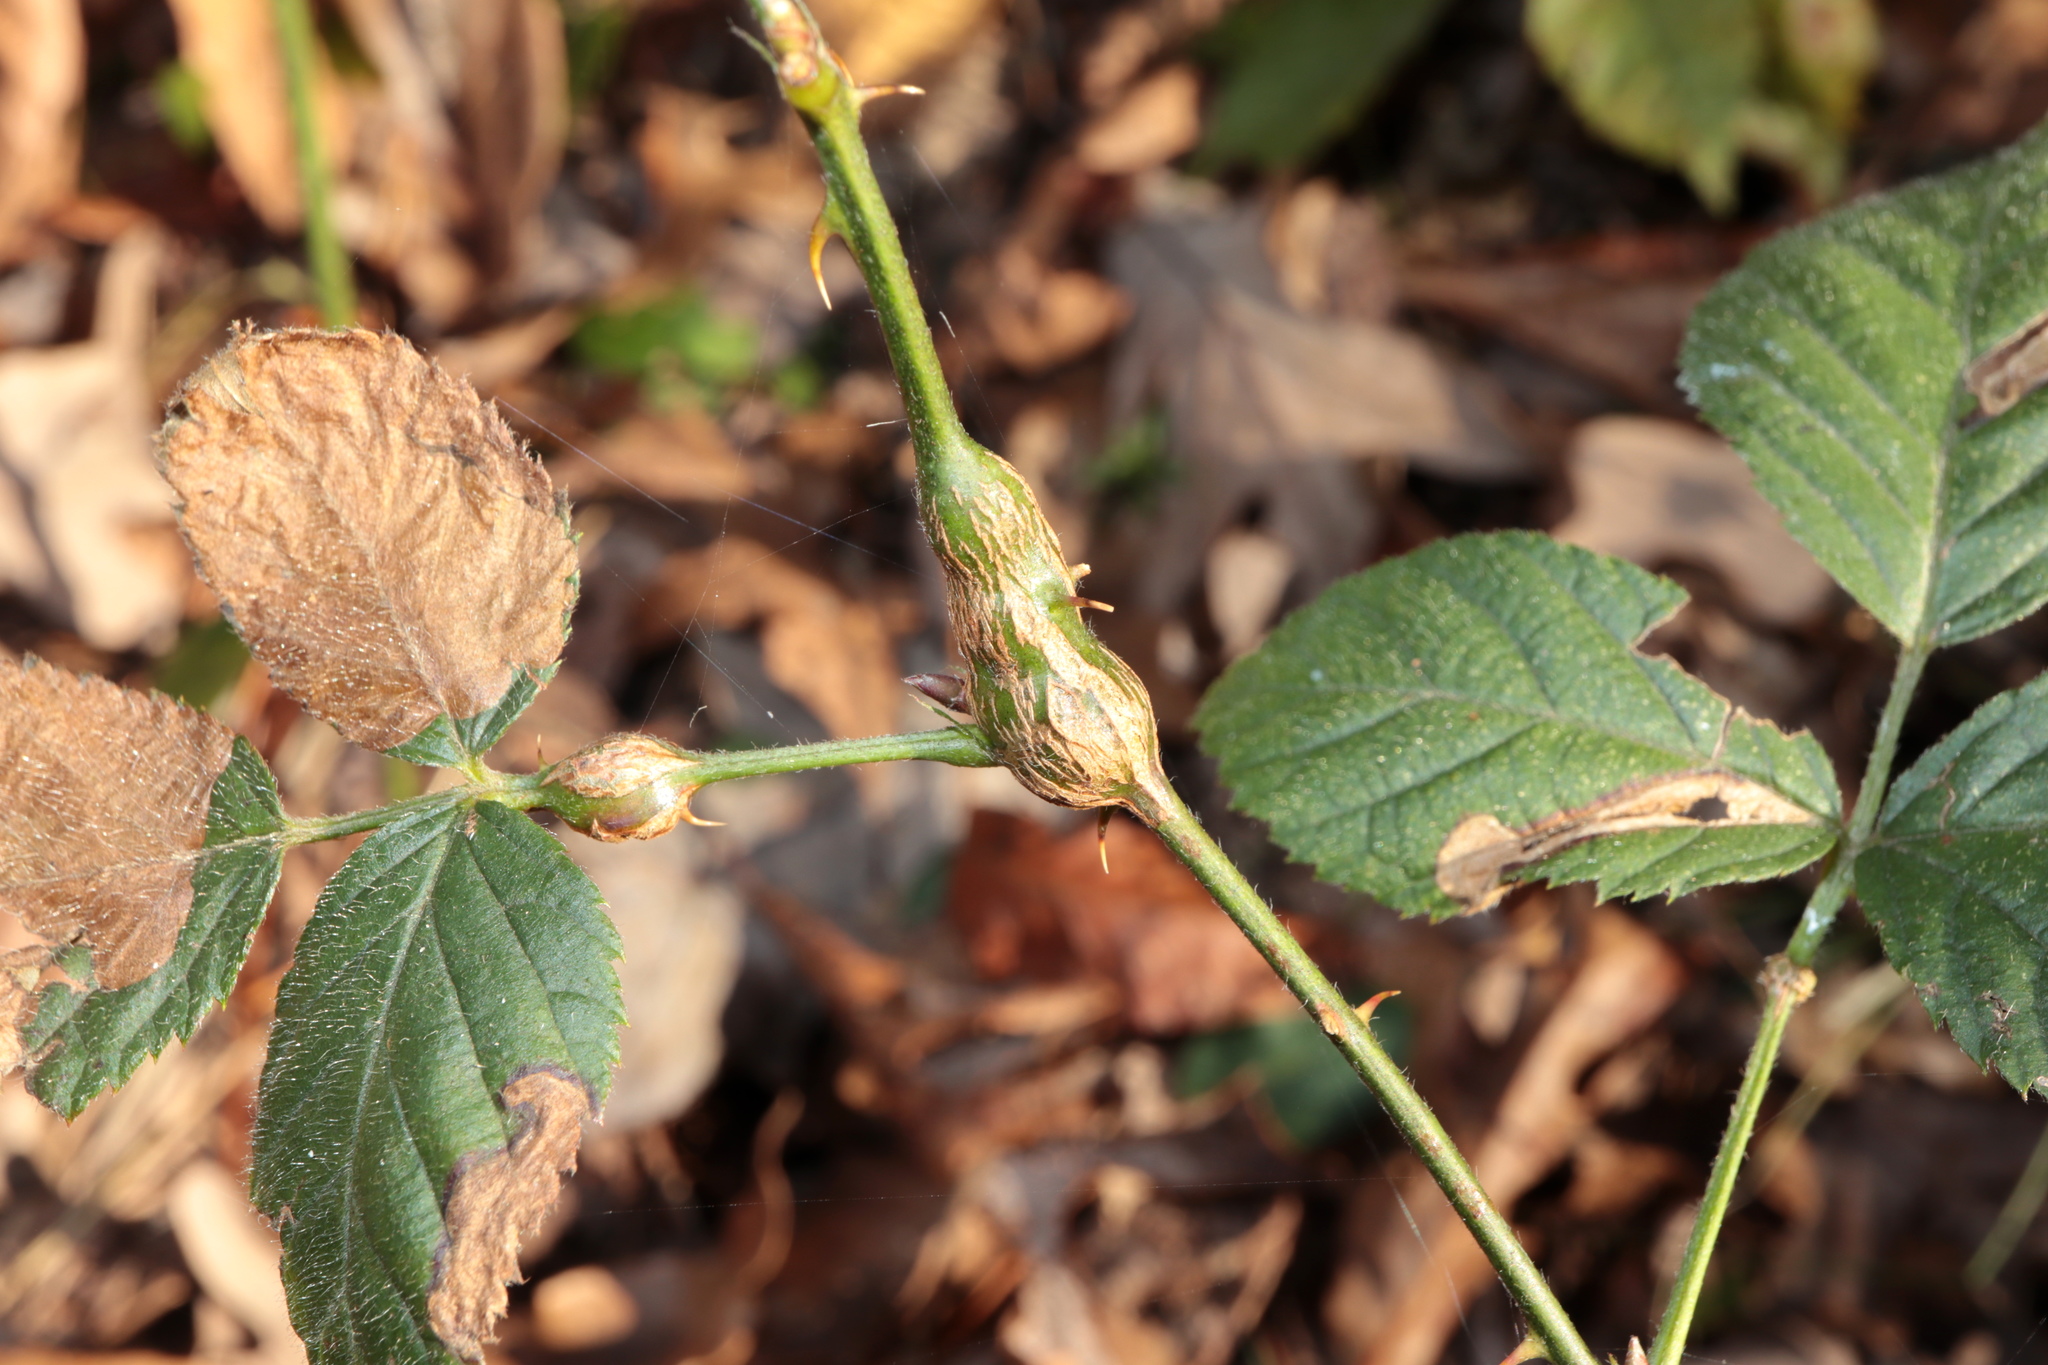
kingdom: Animalia
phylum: Arthropoda
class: Insecta
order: Diptera
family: Cecidomyiidae
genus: Neolasioptera
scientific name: Neolasioptera nodulosa
